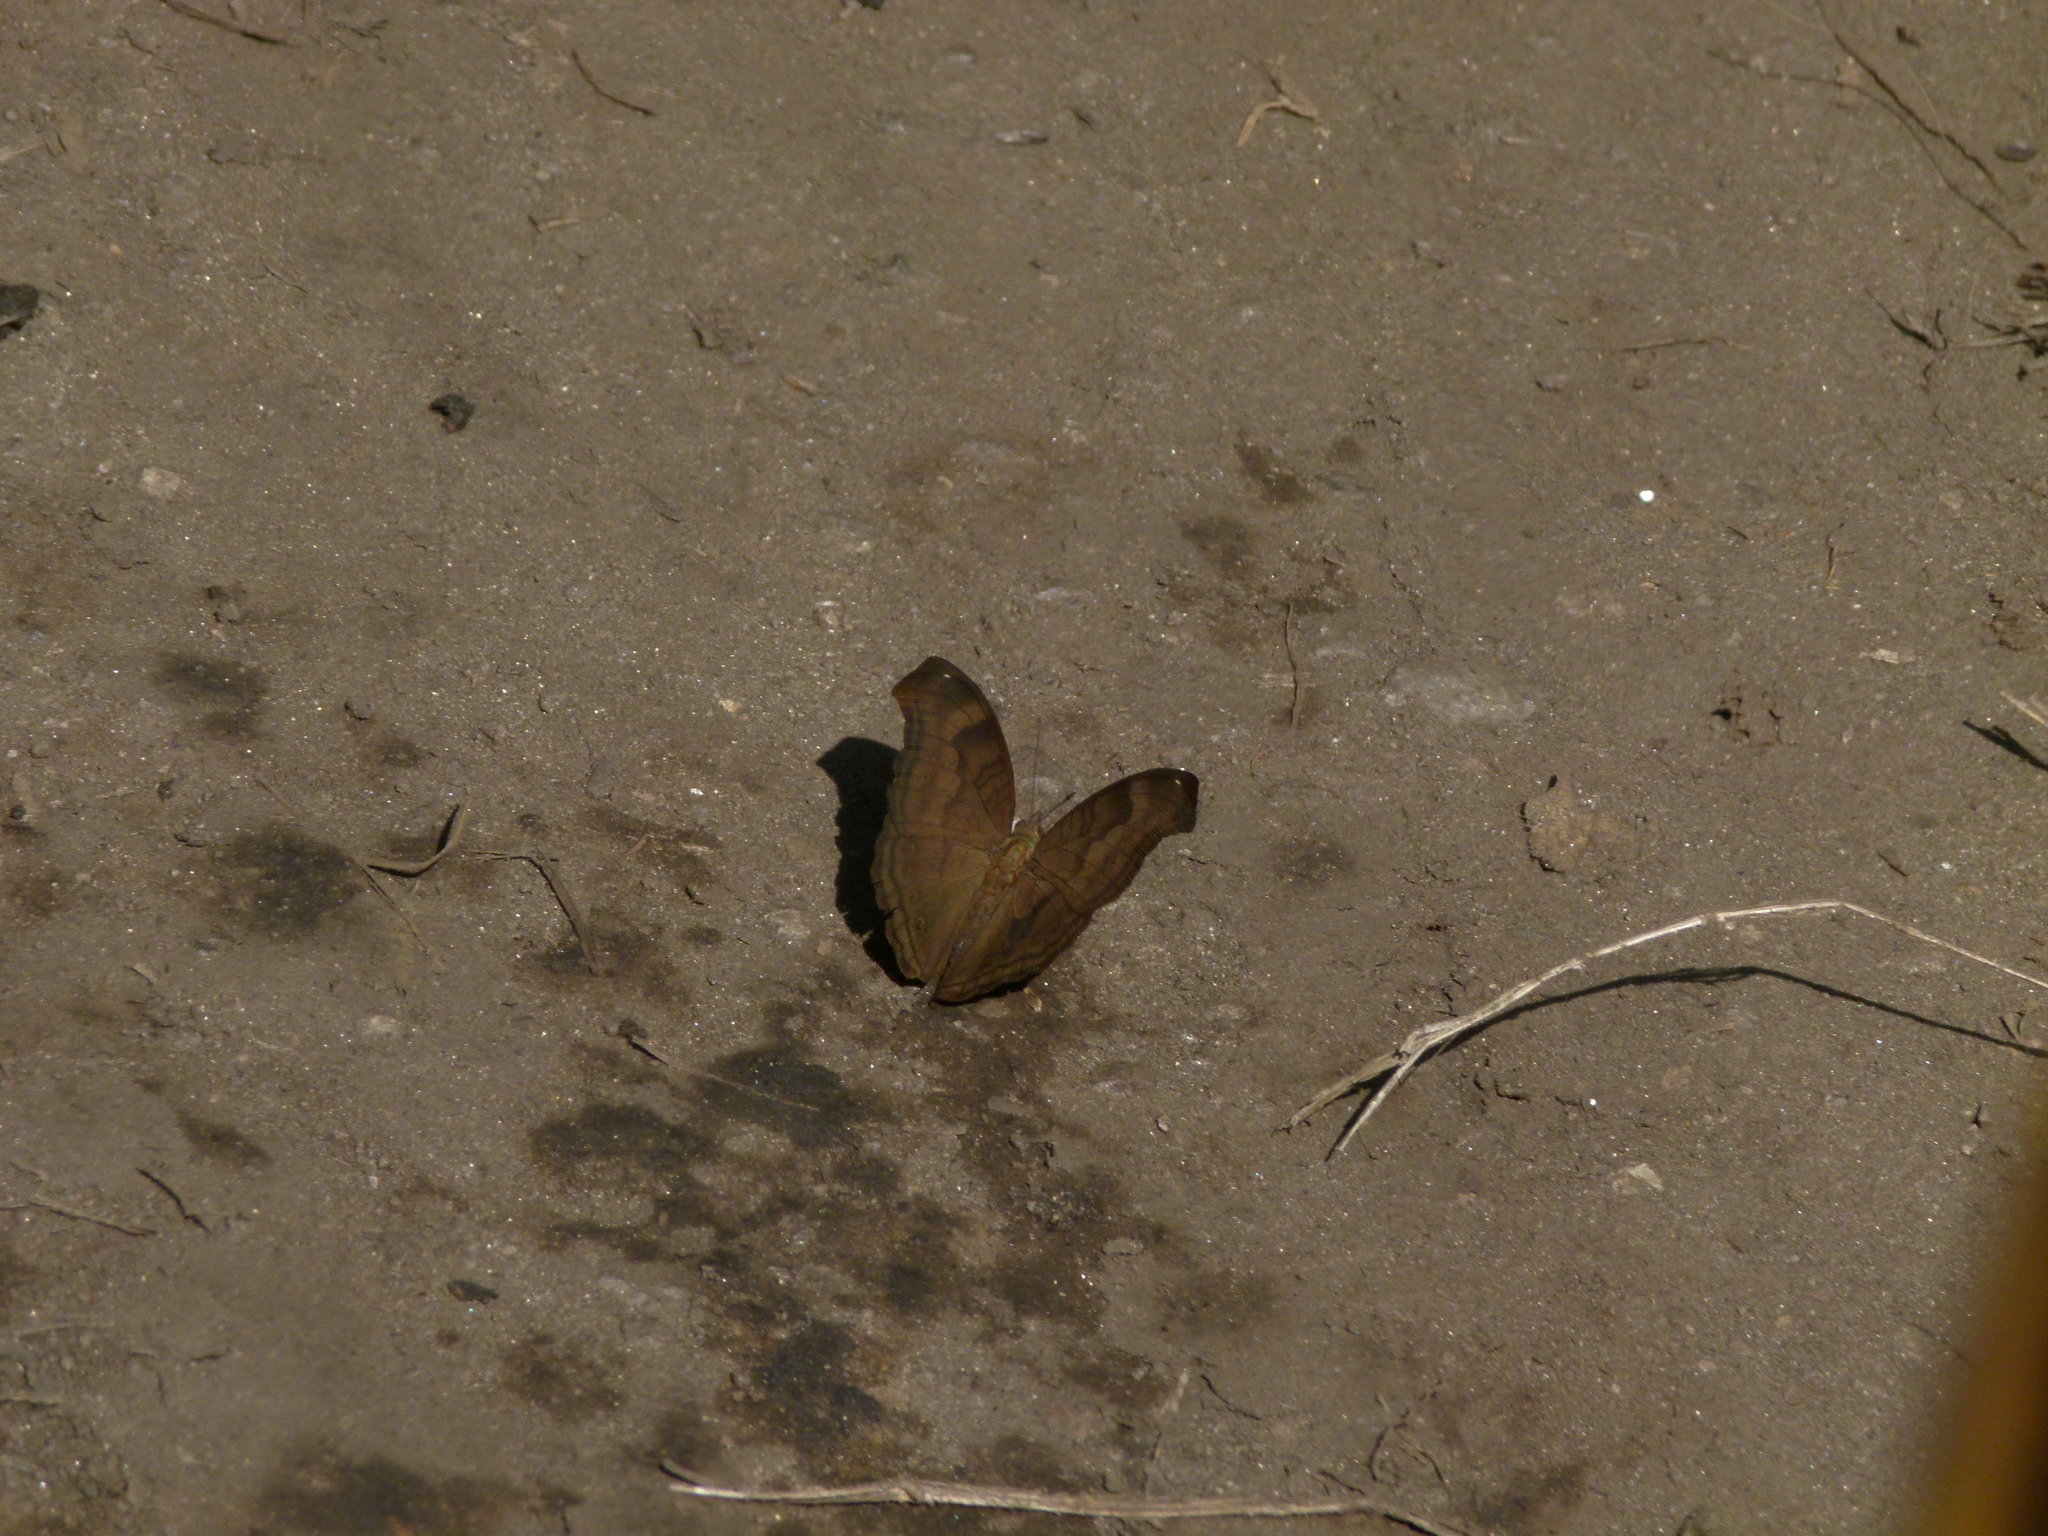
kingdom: Animalia
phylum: Arthropoda
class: Insecta
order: Lepidoptera
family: Nymphalidae
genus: Junonia
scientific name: Junonia iphita
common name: Chocolate pansy
